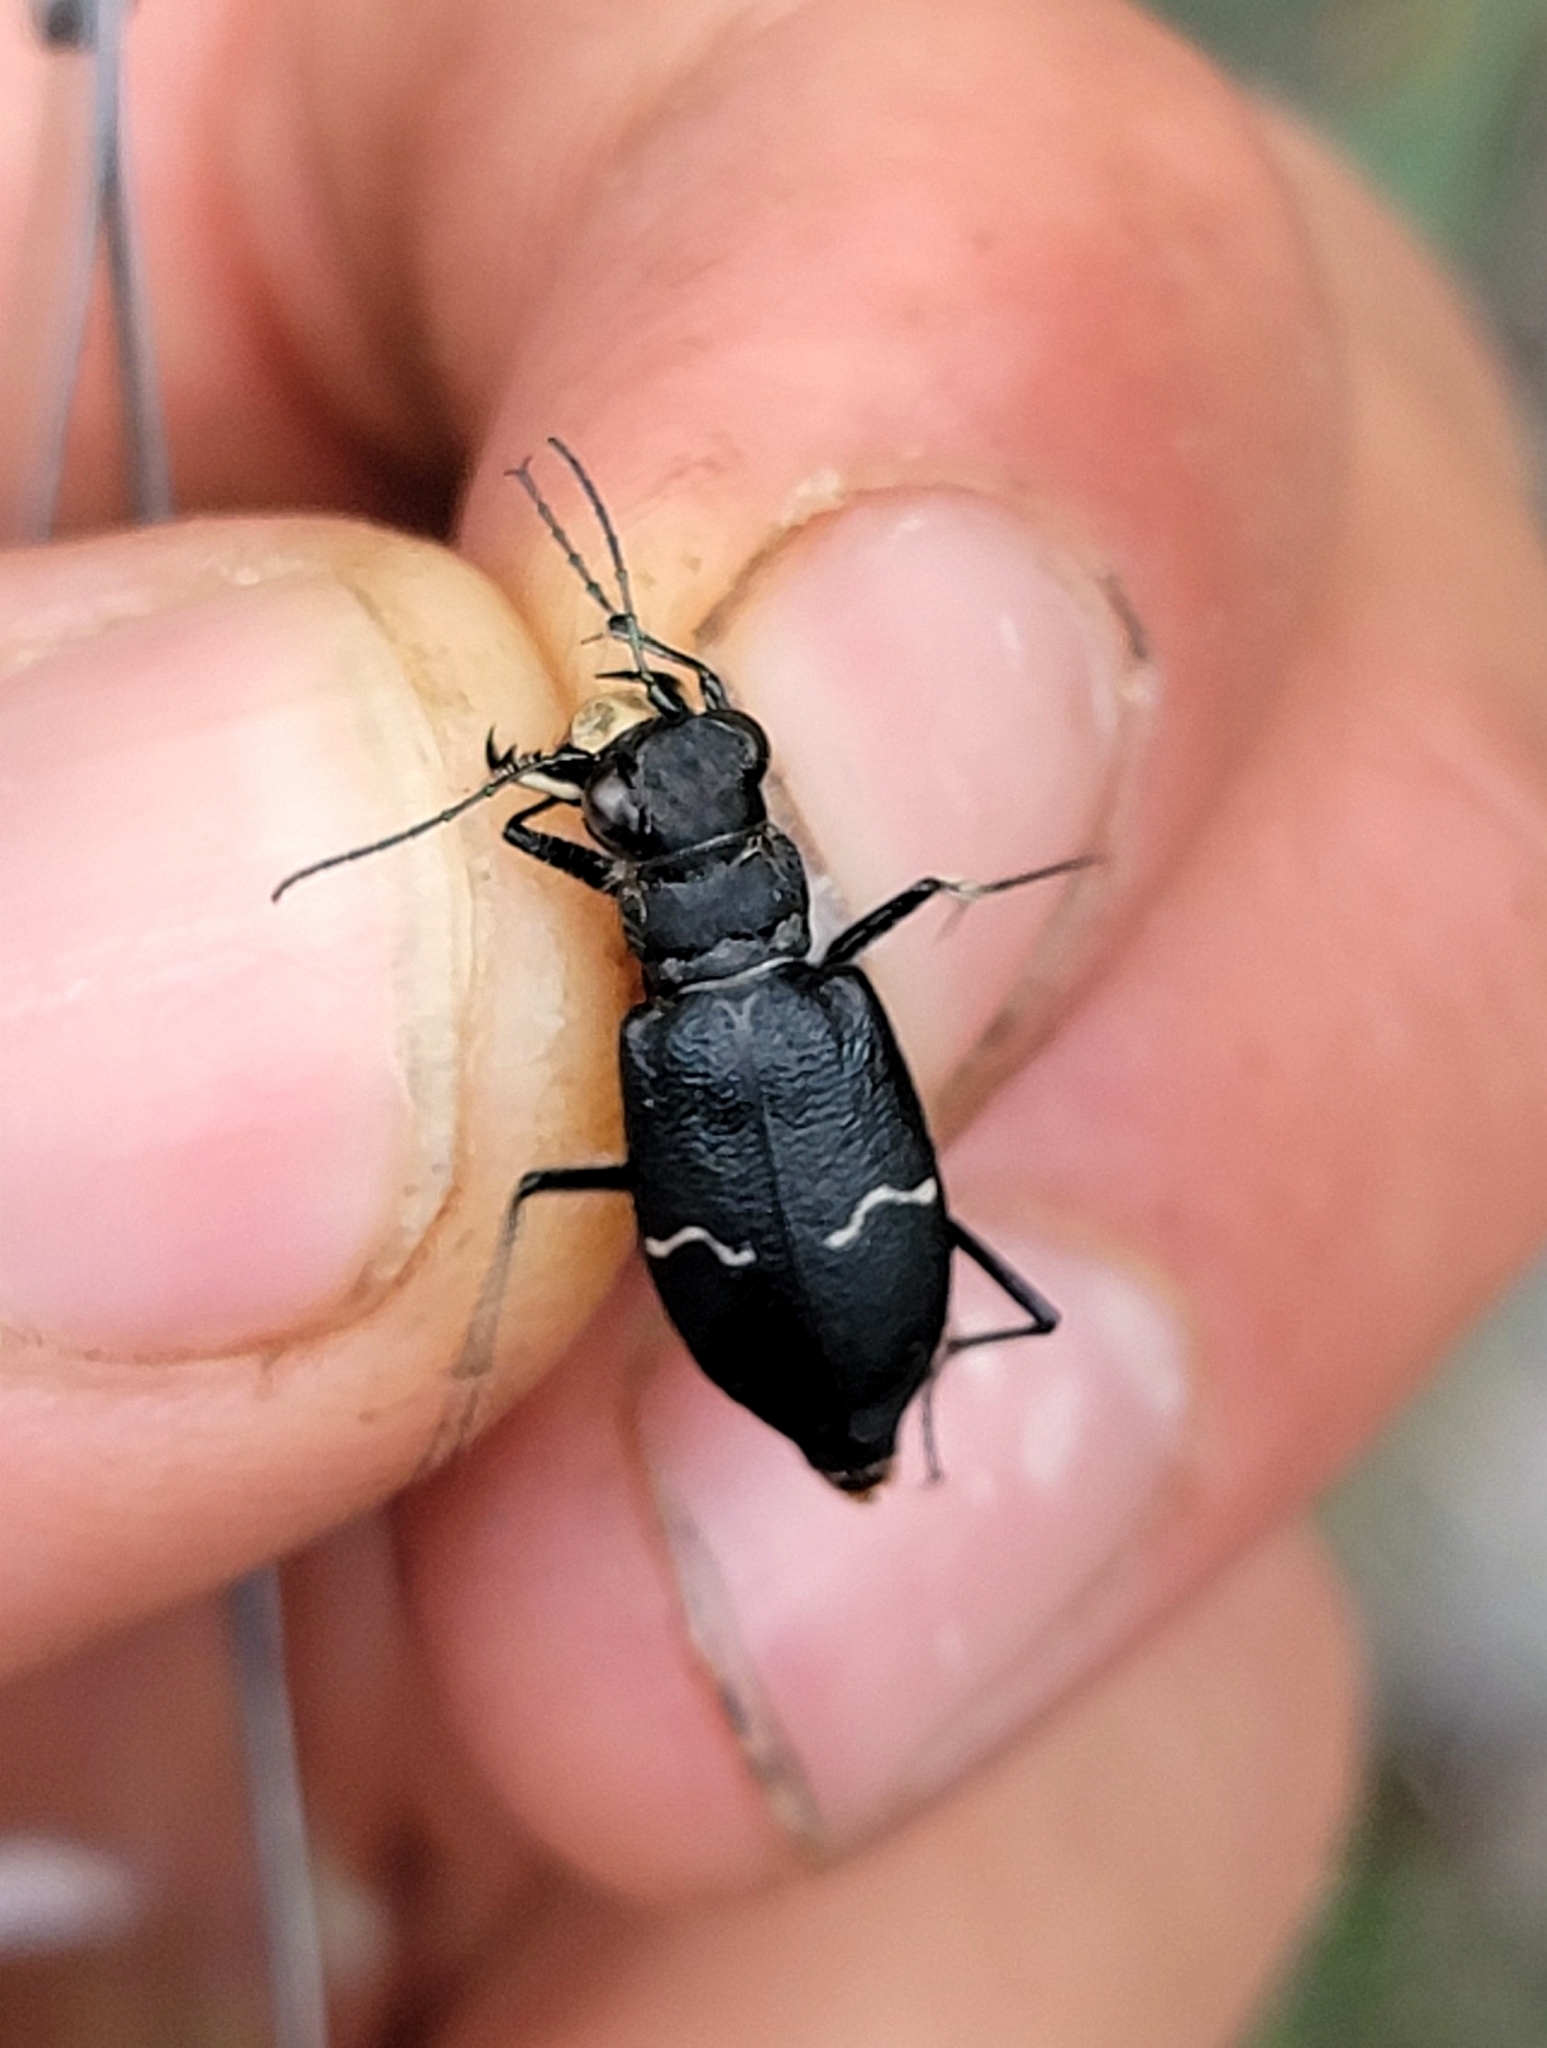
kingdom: Animalia
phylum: Arthropoda
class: Insecta
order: Coleoptera
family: Carabidae
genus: Cicindela
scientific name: Cicindela longilabris
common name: Boreal long-lipped tiger beetle
